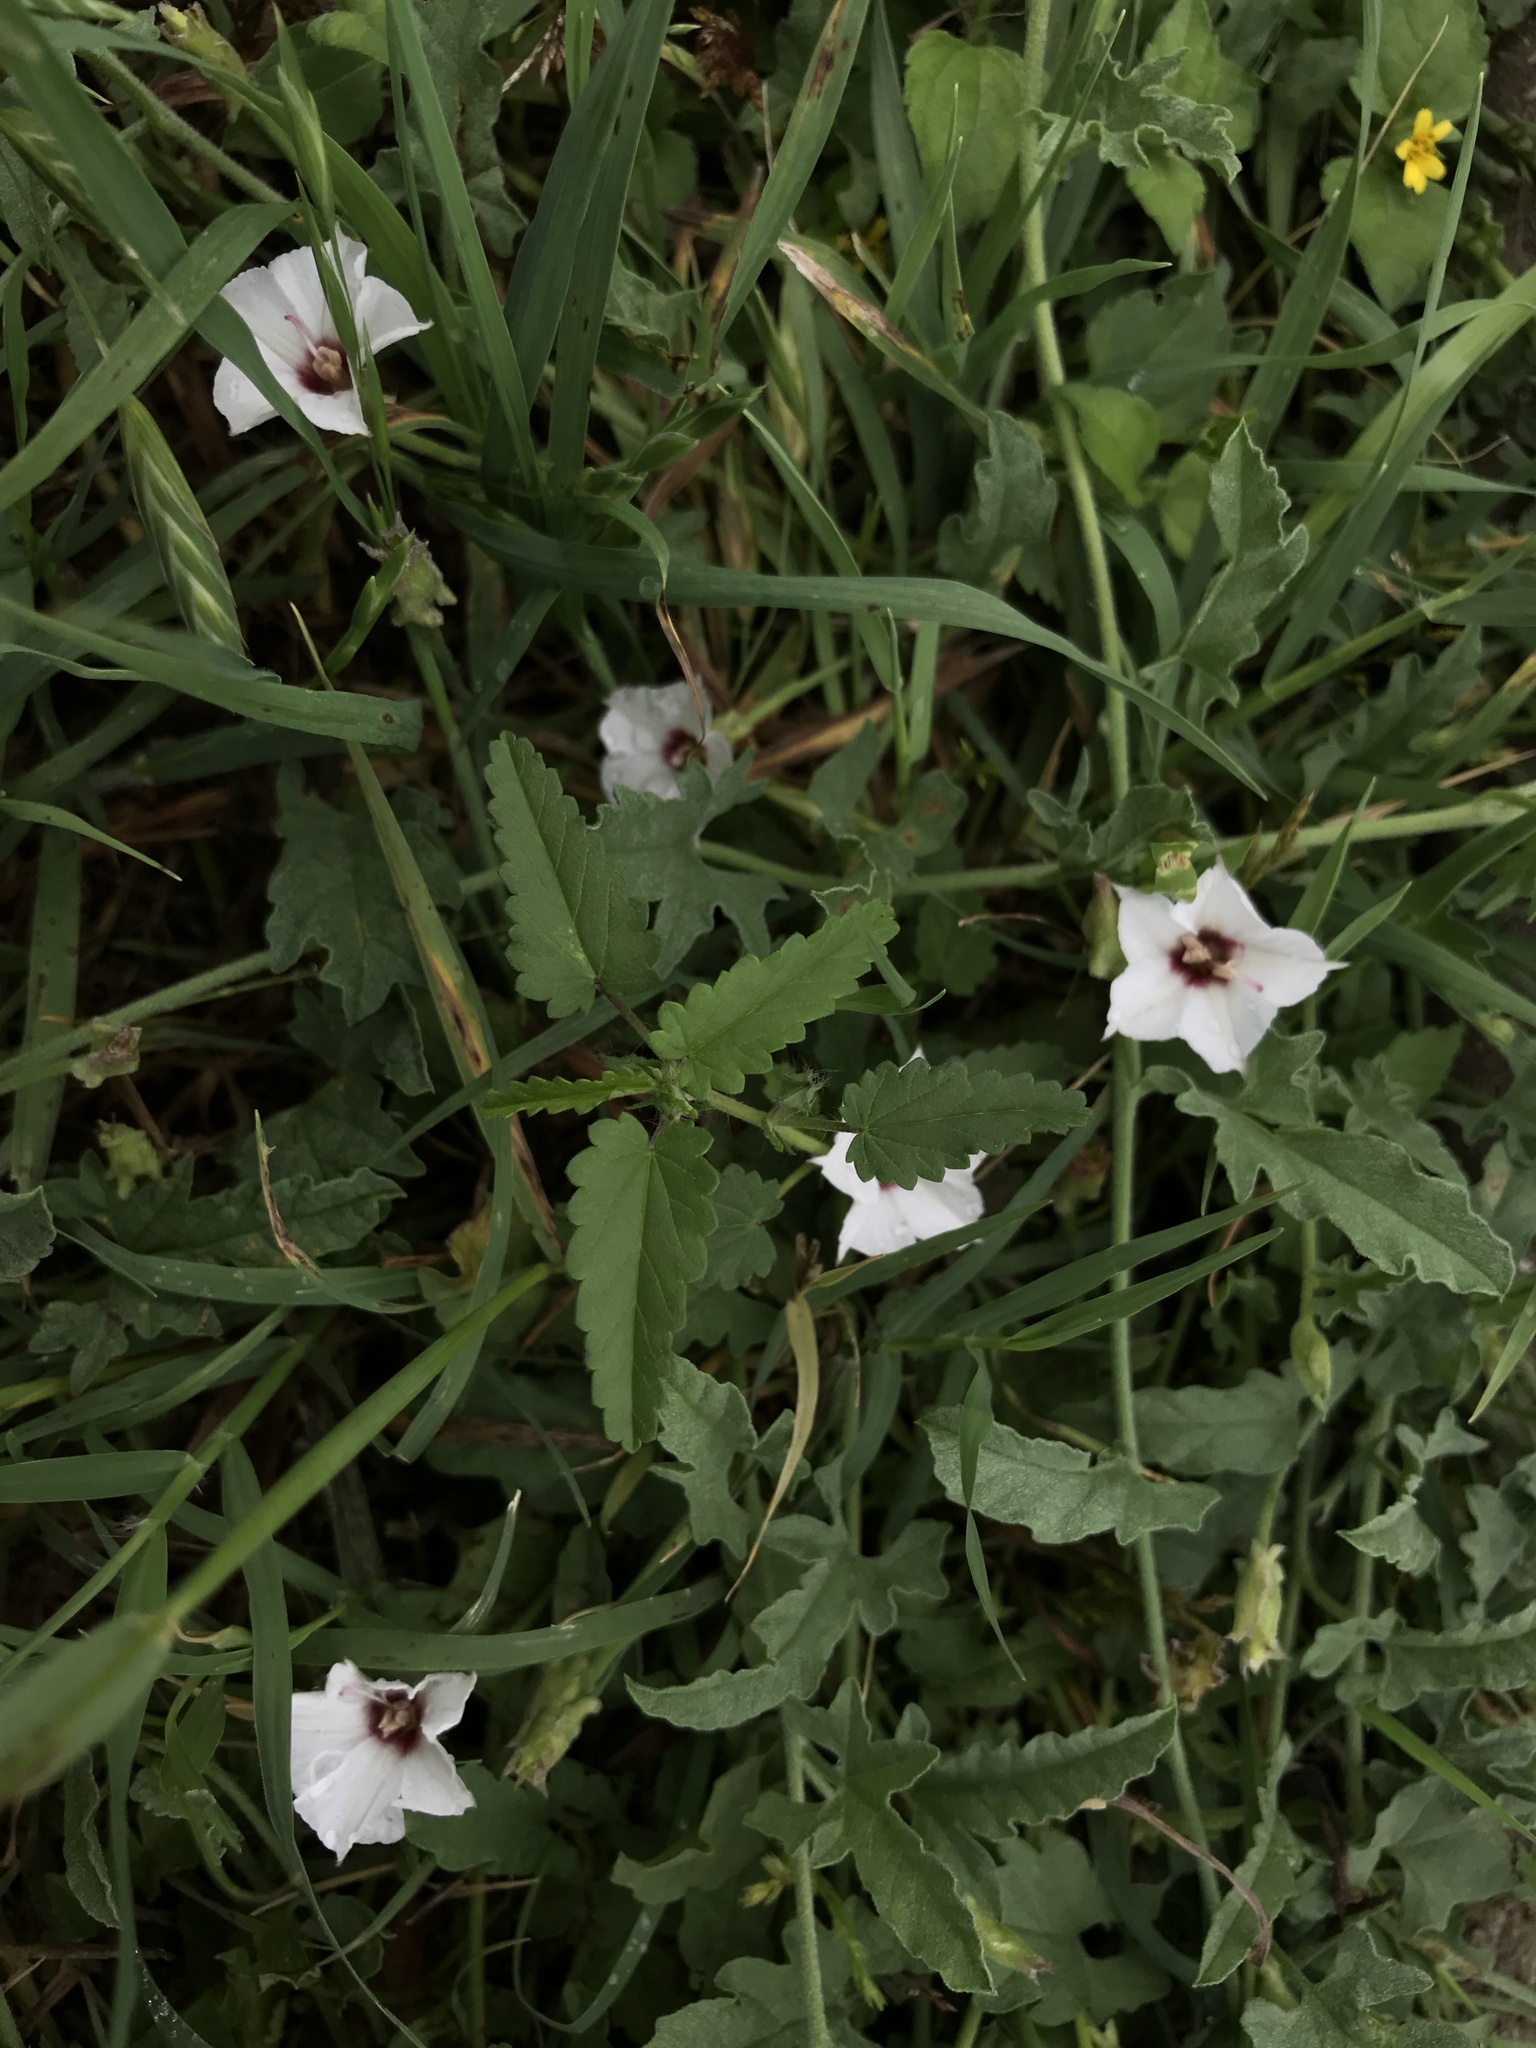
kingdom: Plantae
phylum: Tracheophyta
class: Magnoliopsida
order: Solanales
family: Convolvulaceae
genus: Convolvulus
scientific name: Convolvulus equitans
